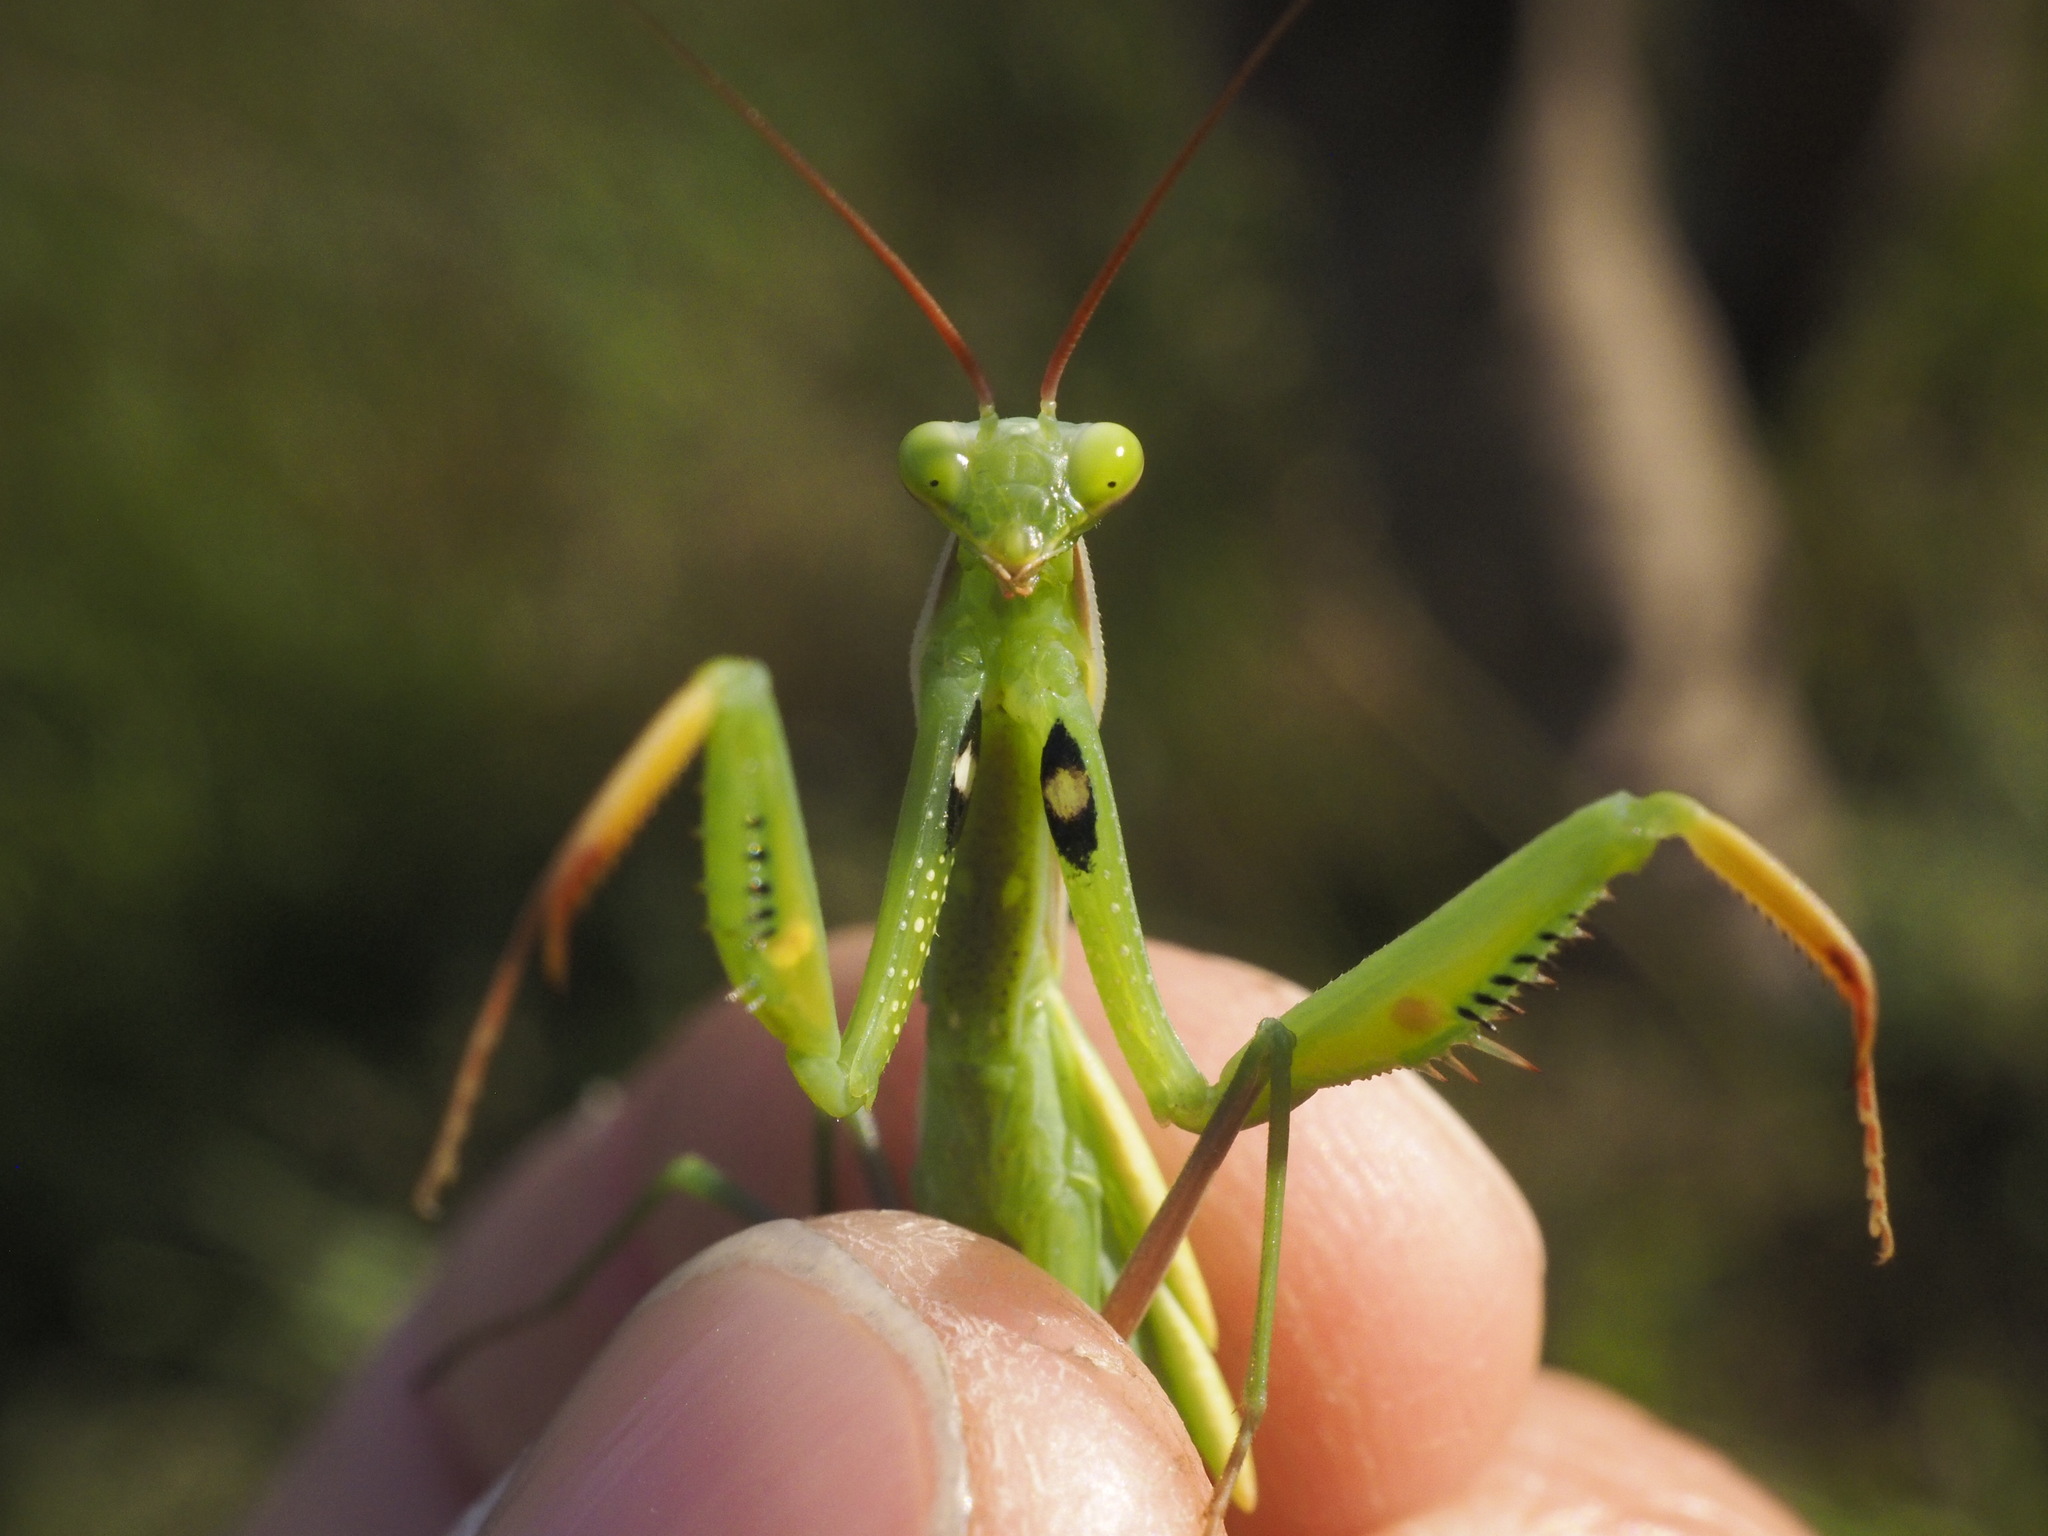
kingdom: Animalia
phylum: Arthropoda
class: Insecta
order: Mantodea
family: Mantidae
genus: Mantis
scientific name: Mantis religiosa
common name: Praying mantis
